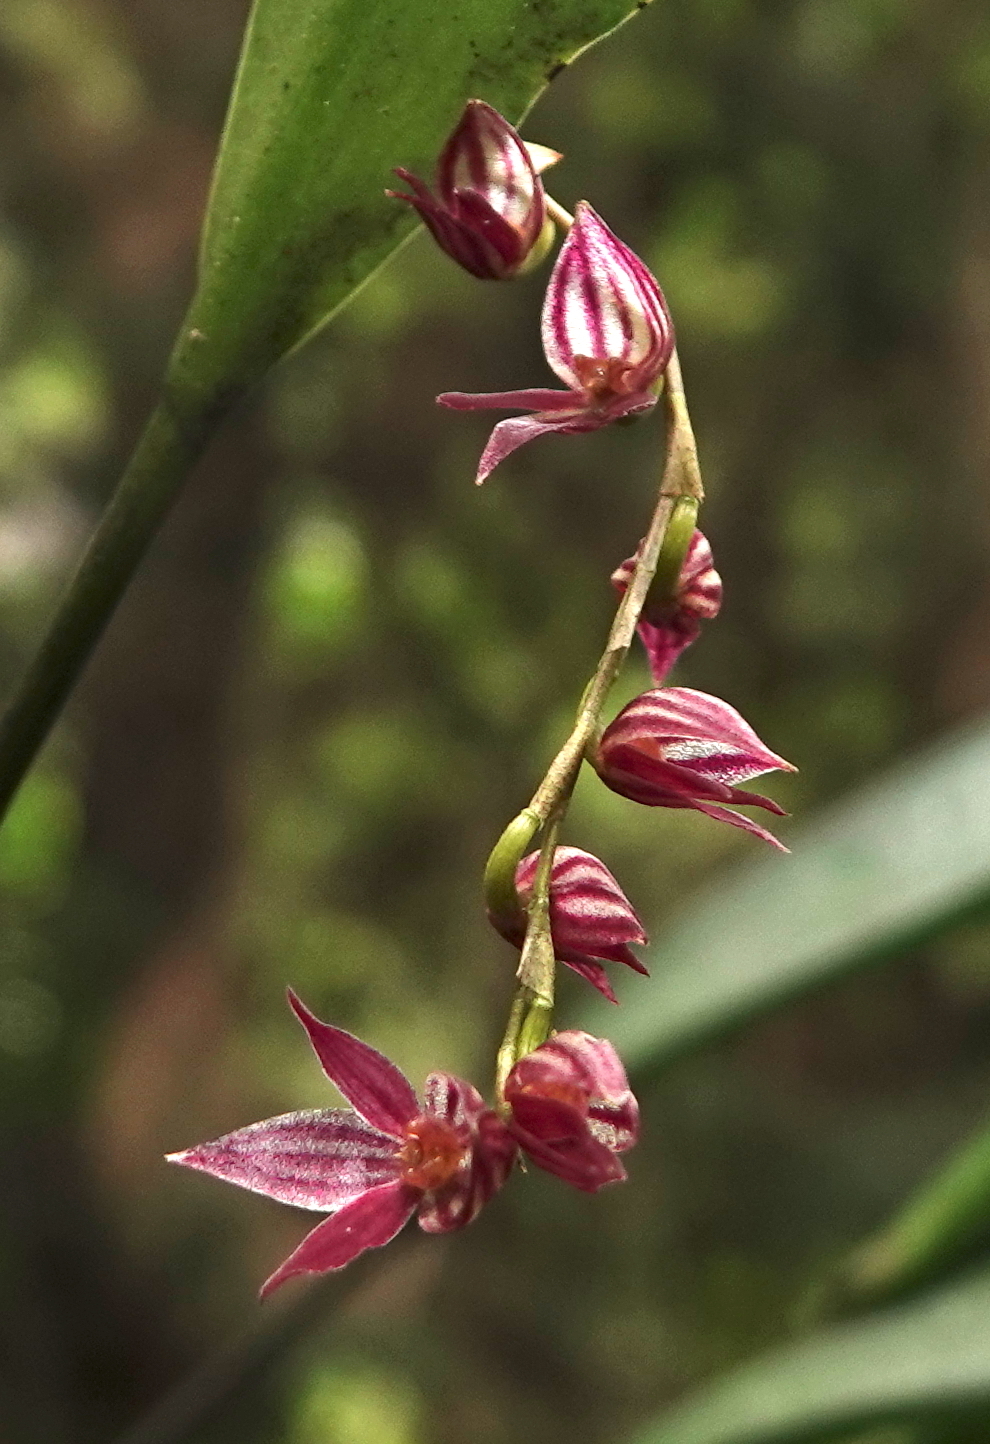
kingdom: Plantae
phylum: Tracheophyta
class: Liliopsida
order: Asparagales
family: Orchidaceae
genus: Pleurothallis
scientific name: Pleurothallis lindenii
